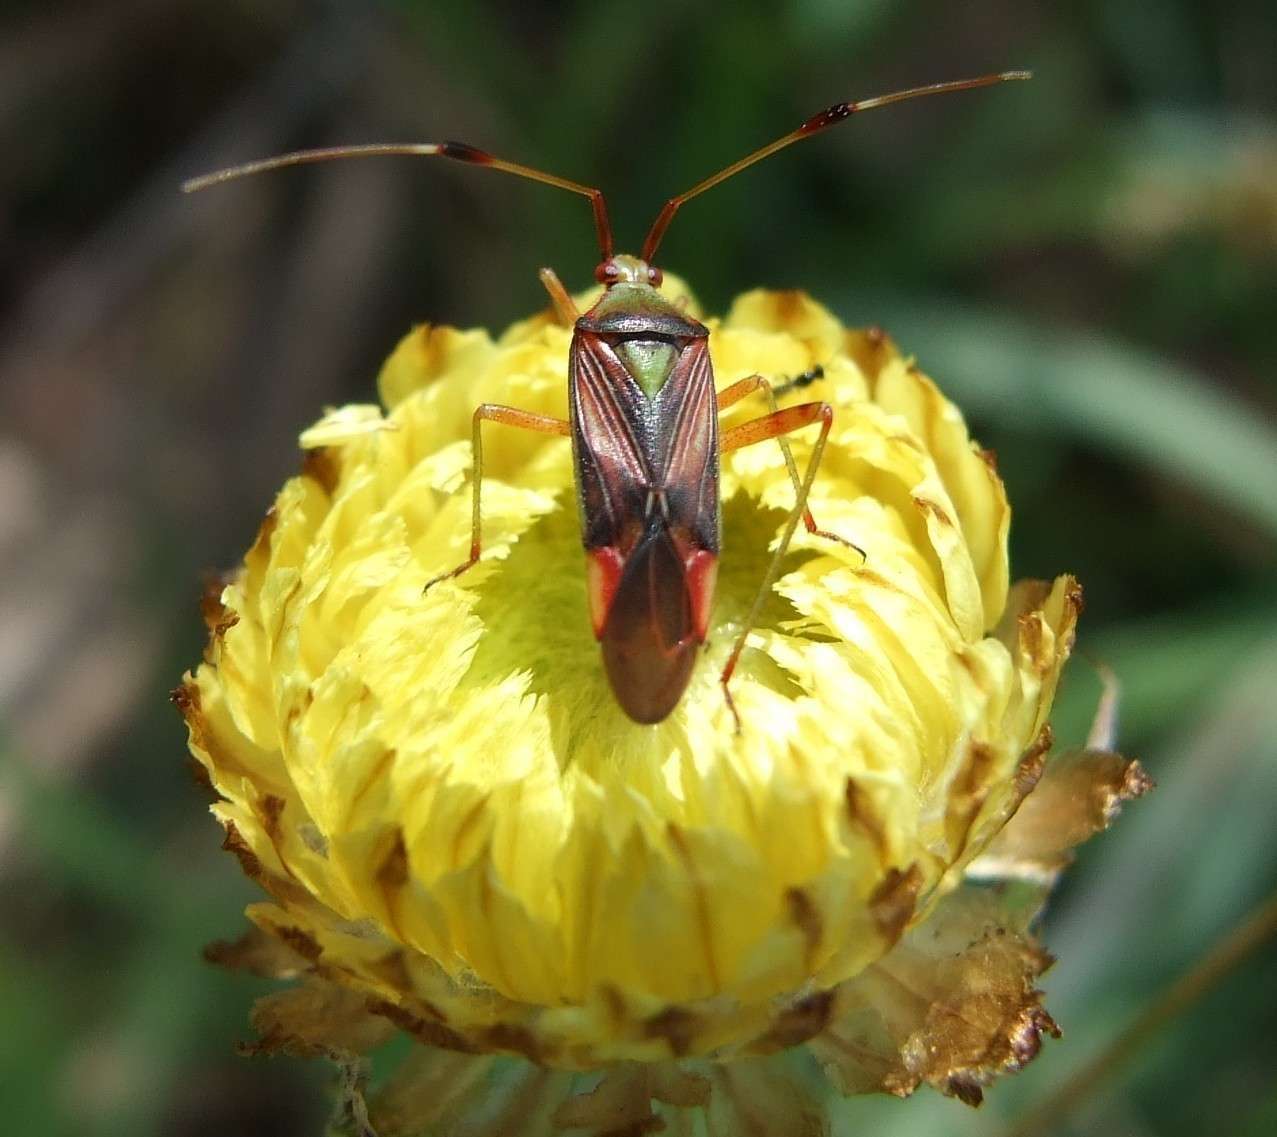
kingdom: Plantae
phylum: Tracheophyta
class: Magnoliopsida
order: Asterales
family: Asteraceae
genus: Coronidium
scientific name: Coronidium scorpioides
